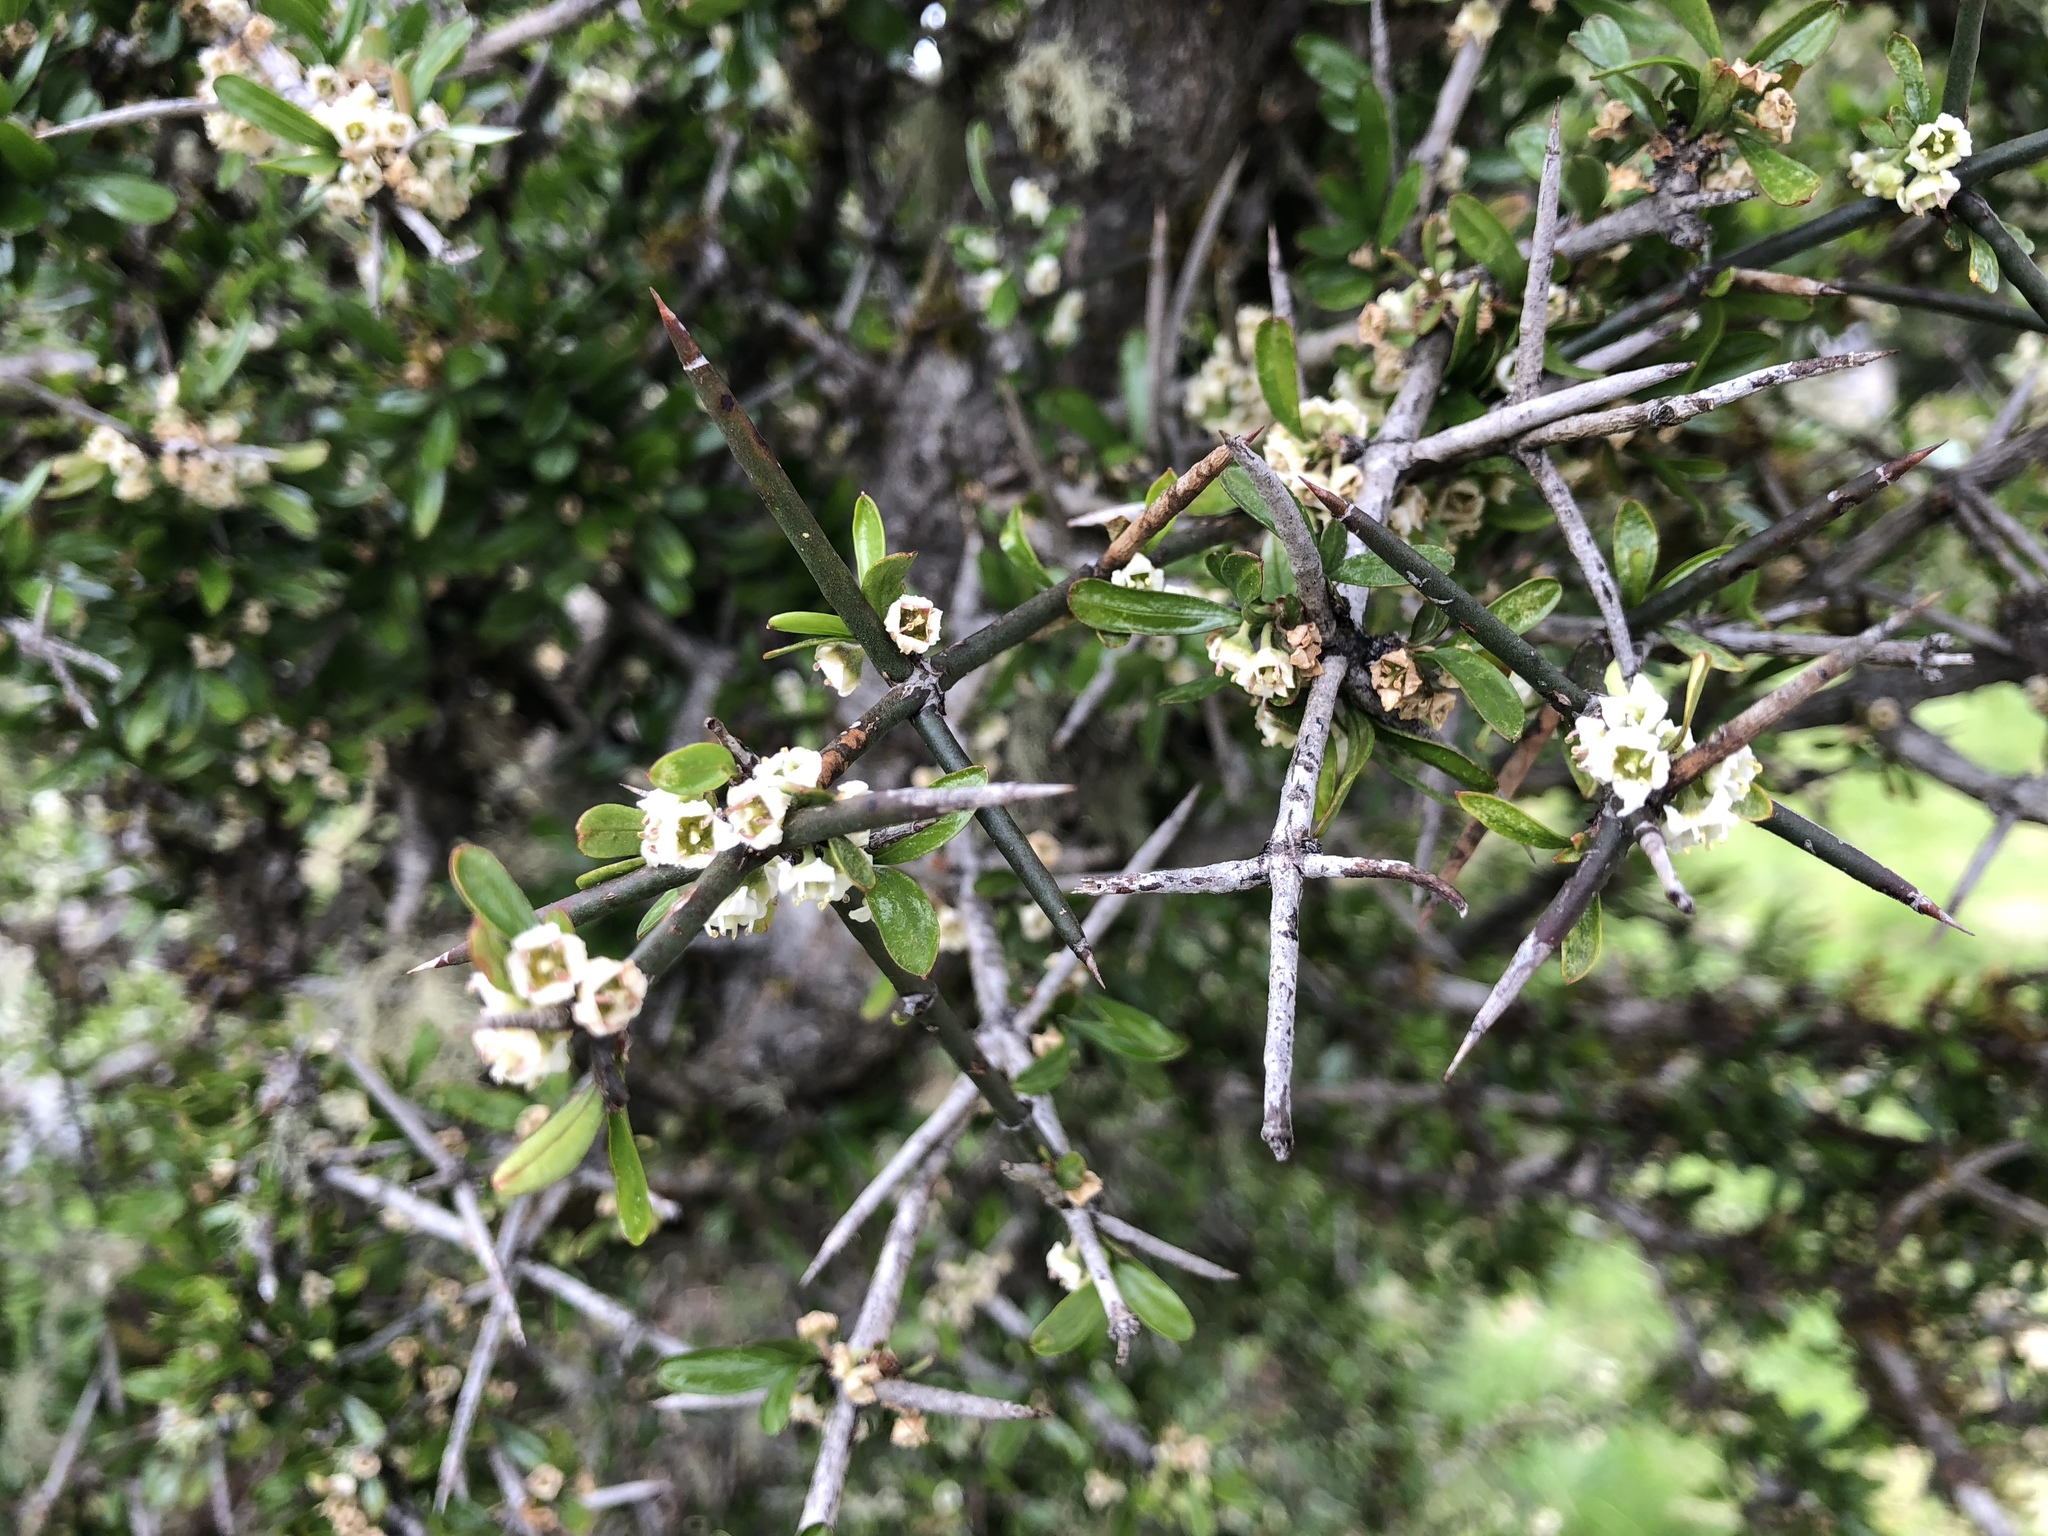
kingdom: Plantae
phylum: Tracheophyta
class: Magnoliopsida
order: Rosales
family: Rhamnaceae
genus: Discaria
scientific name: Discaria toumatou
